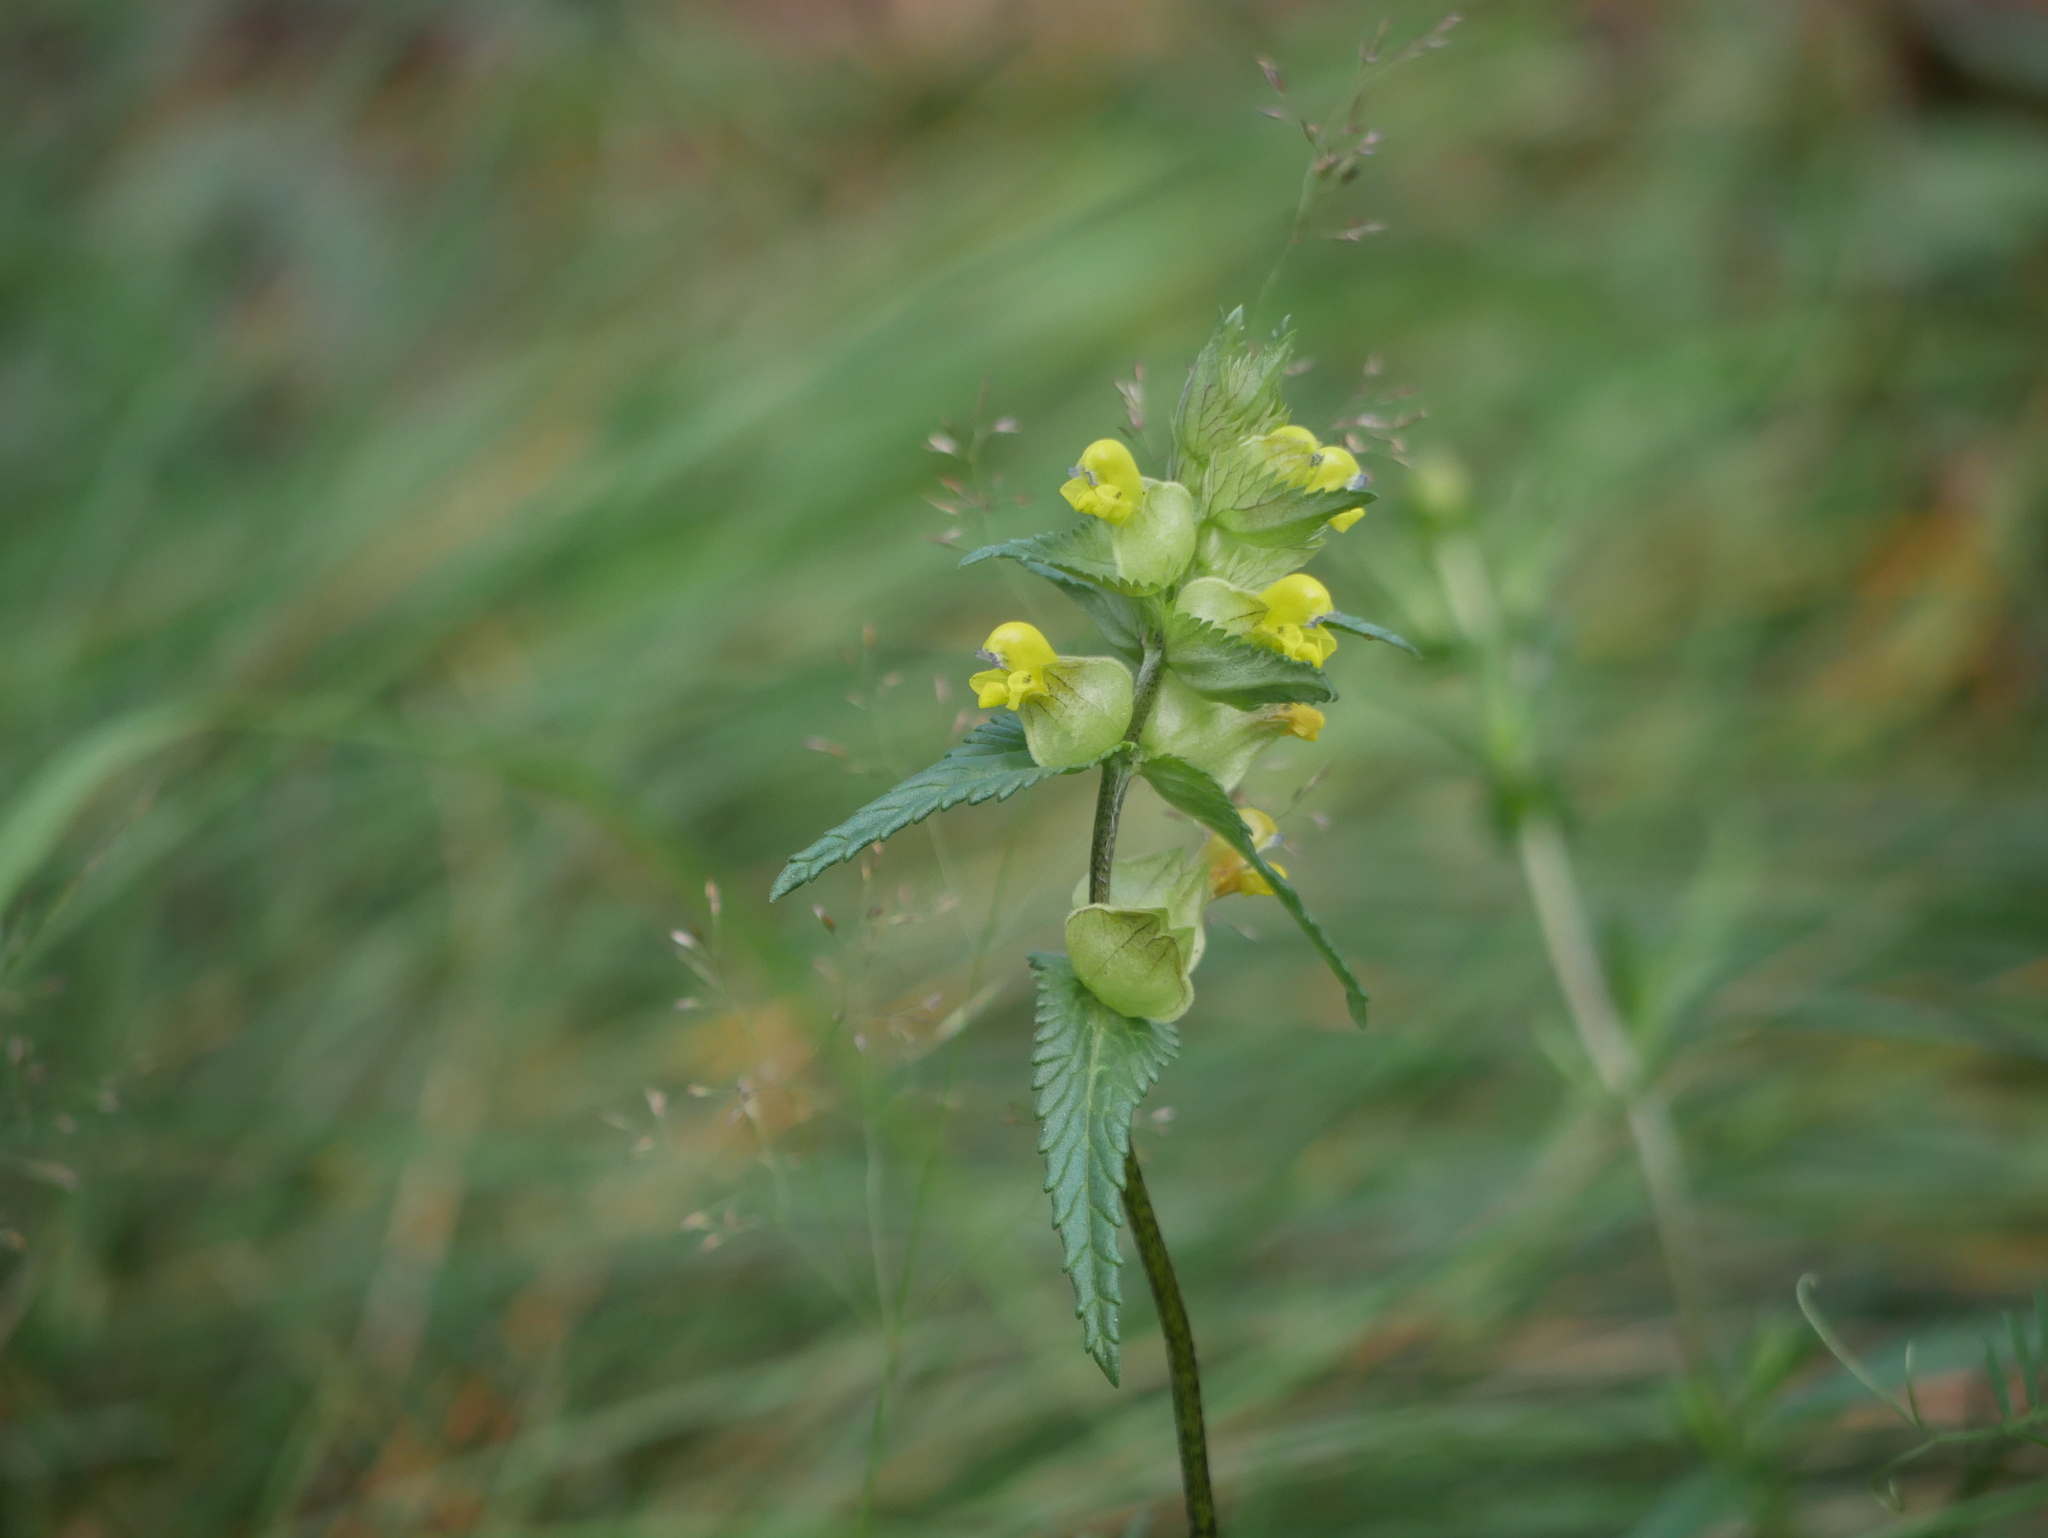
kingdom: Plantae
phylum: Tracheophyta
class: Magnoliopsida
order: Lamiales
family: Orobanchaceae
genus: Rhinanthus
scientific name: Rhinanthus minor
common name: Yellow-rattle
